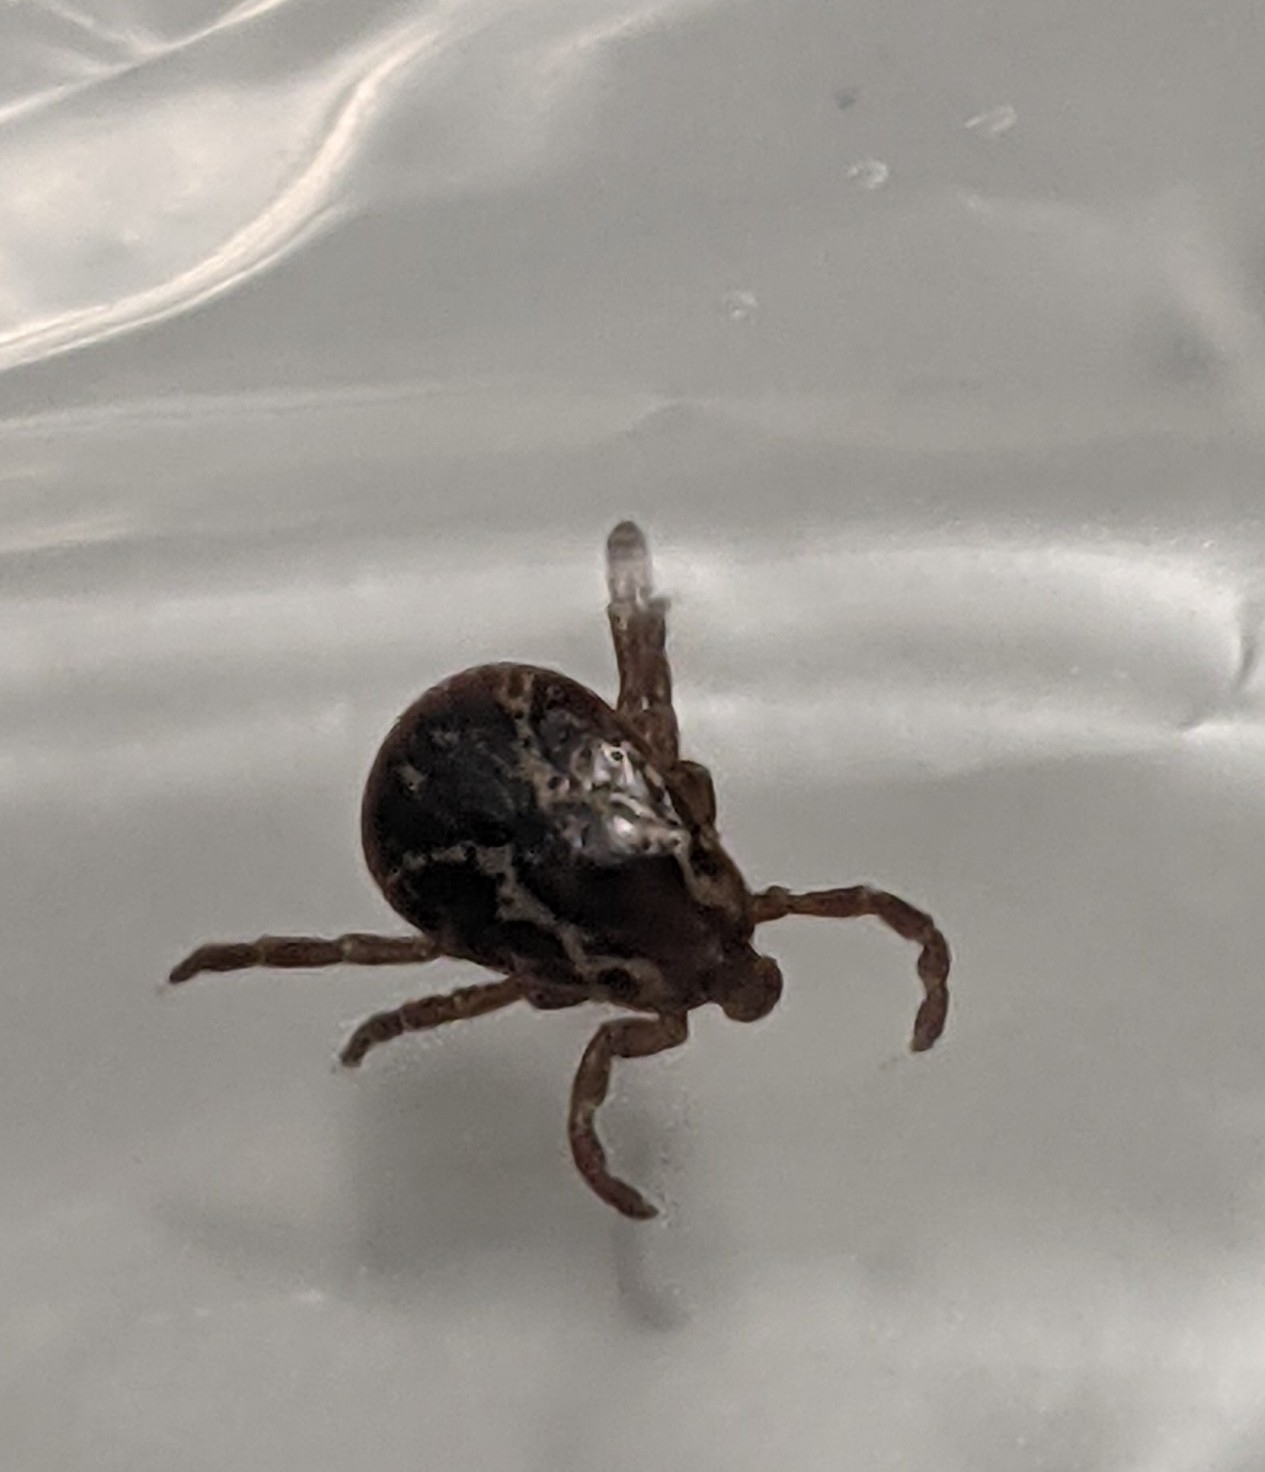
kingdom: Animalia
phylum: Arthropoda
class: Arachnida
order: Ixodida
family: Ixodidae
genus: Dermacentor
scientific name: Dermacentor variabilis
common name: American dog tick
